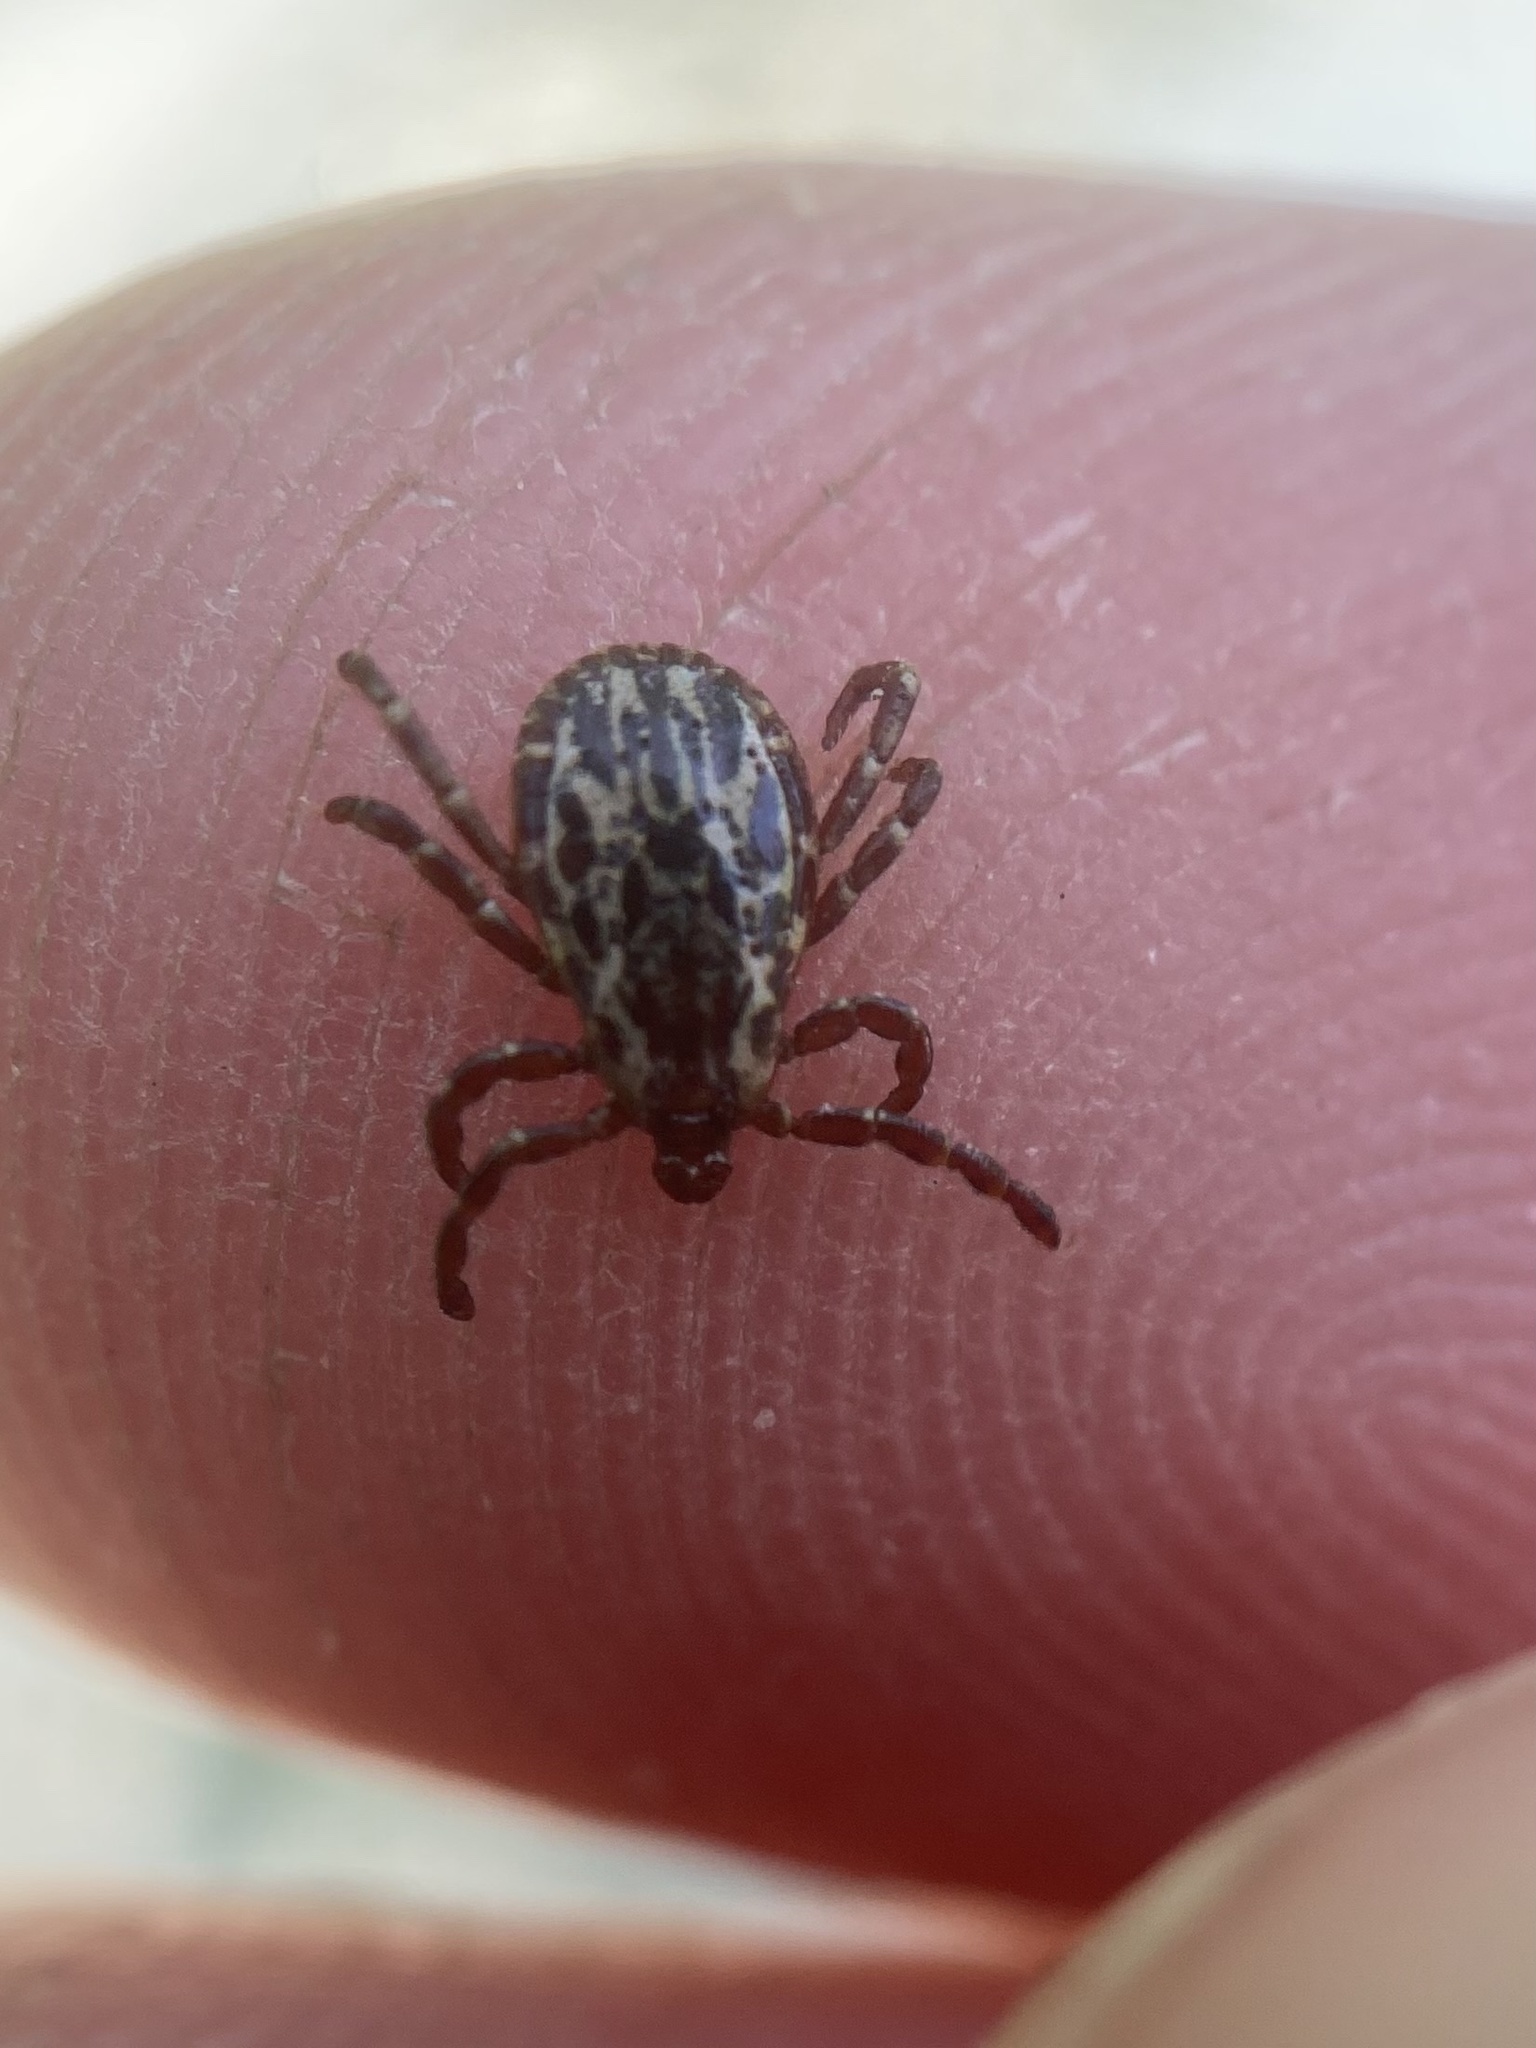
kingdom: Animalia
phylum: Arthropoda
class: Arachnida
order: Ixodida
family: Ixodidae
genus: Dermacentor
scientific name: Dermacentor variabilis
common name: American dog tick
